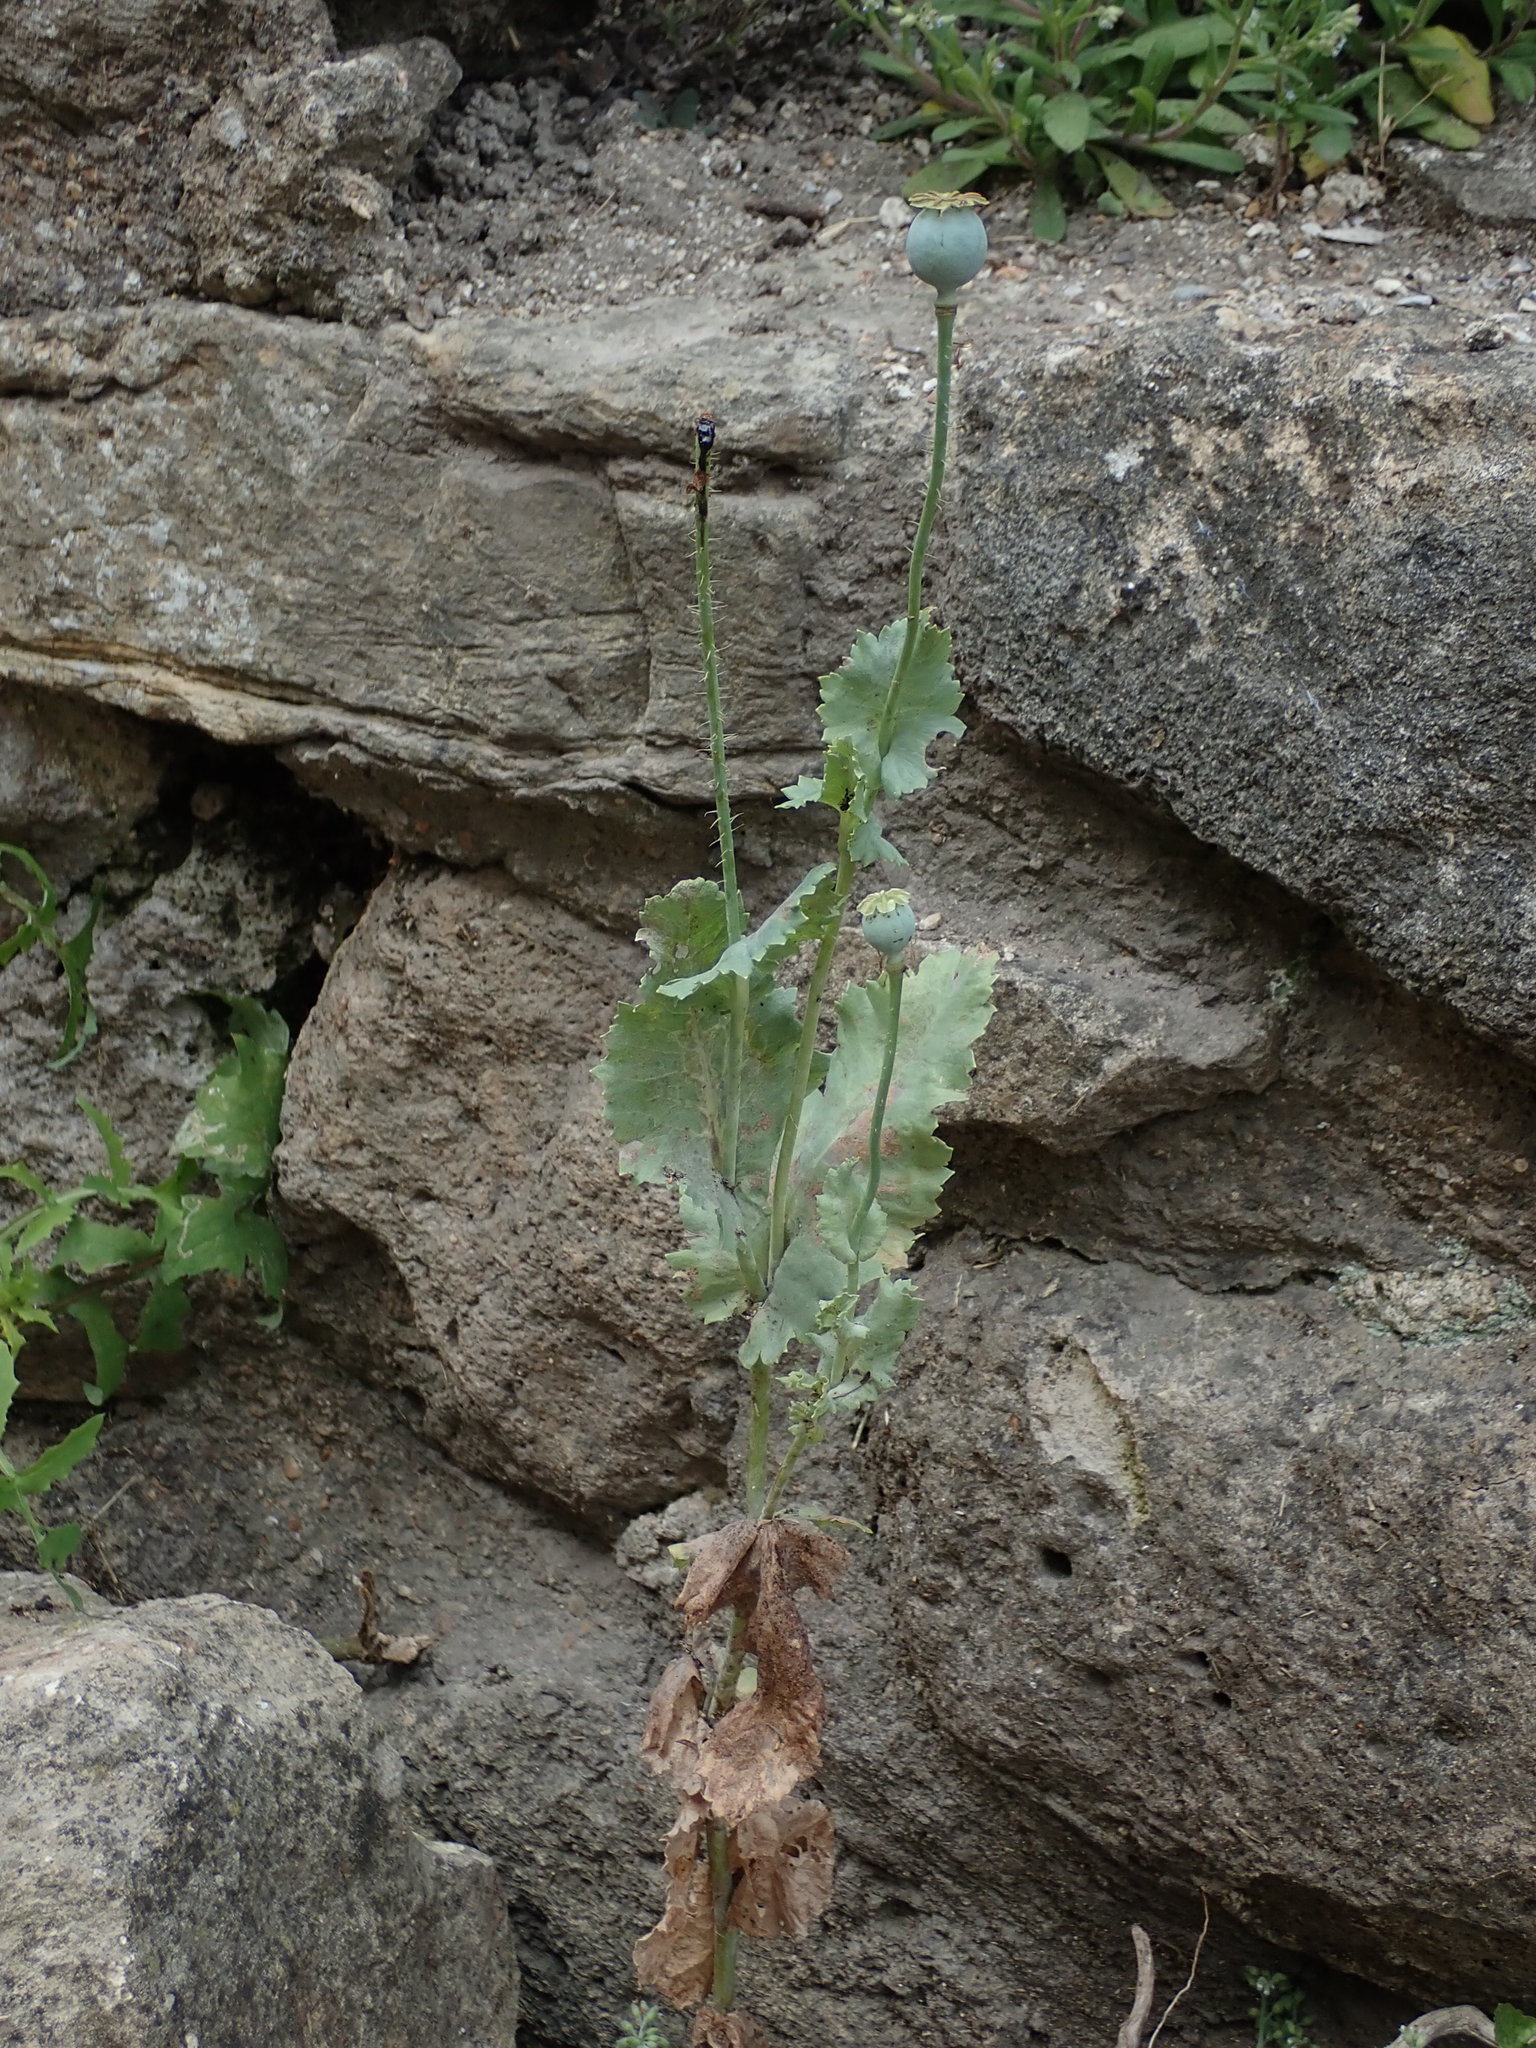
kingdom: Plantae
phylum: Tracheophyta
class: Magnoliopsida
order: Ranunculales
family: Papaveraceae
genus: Papaver
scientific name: Papaver somniferum
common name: Opium poppy
